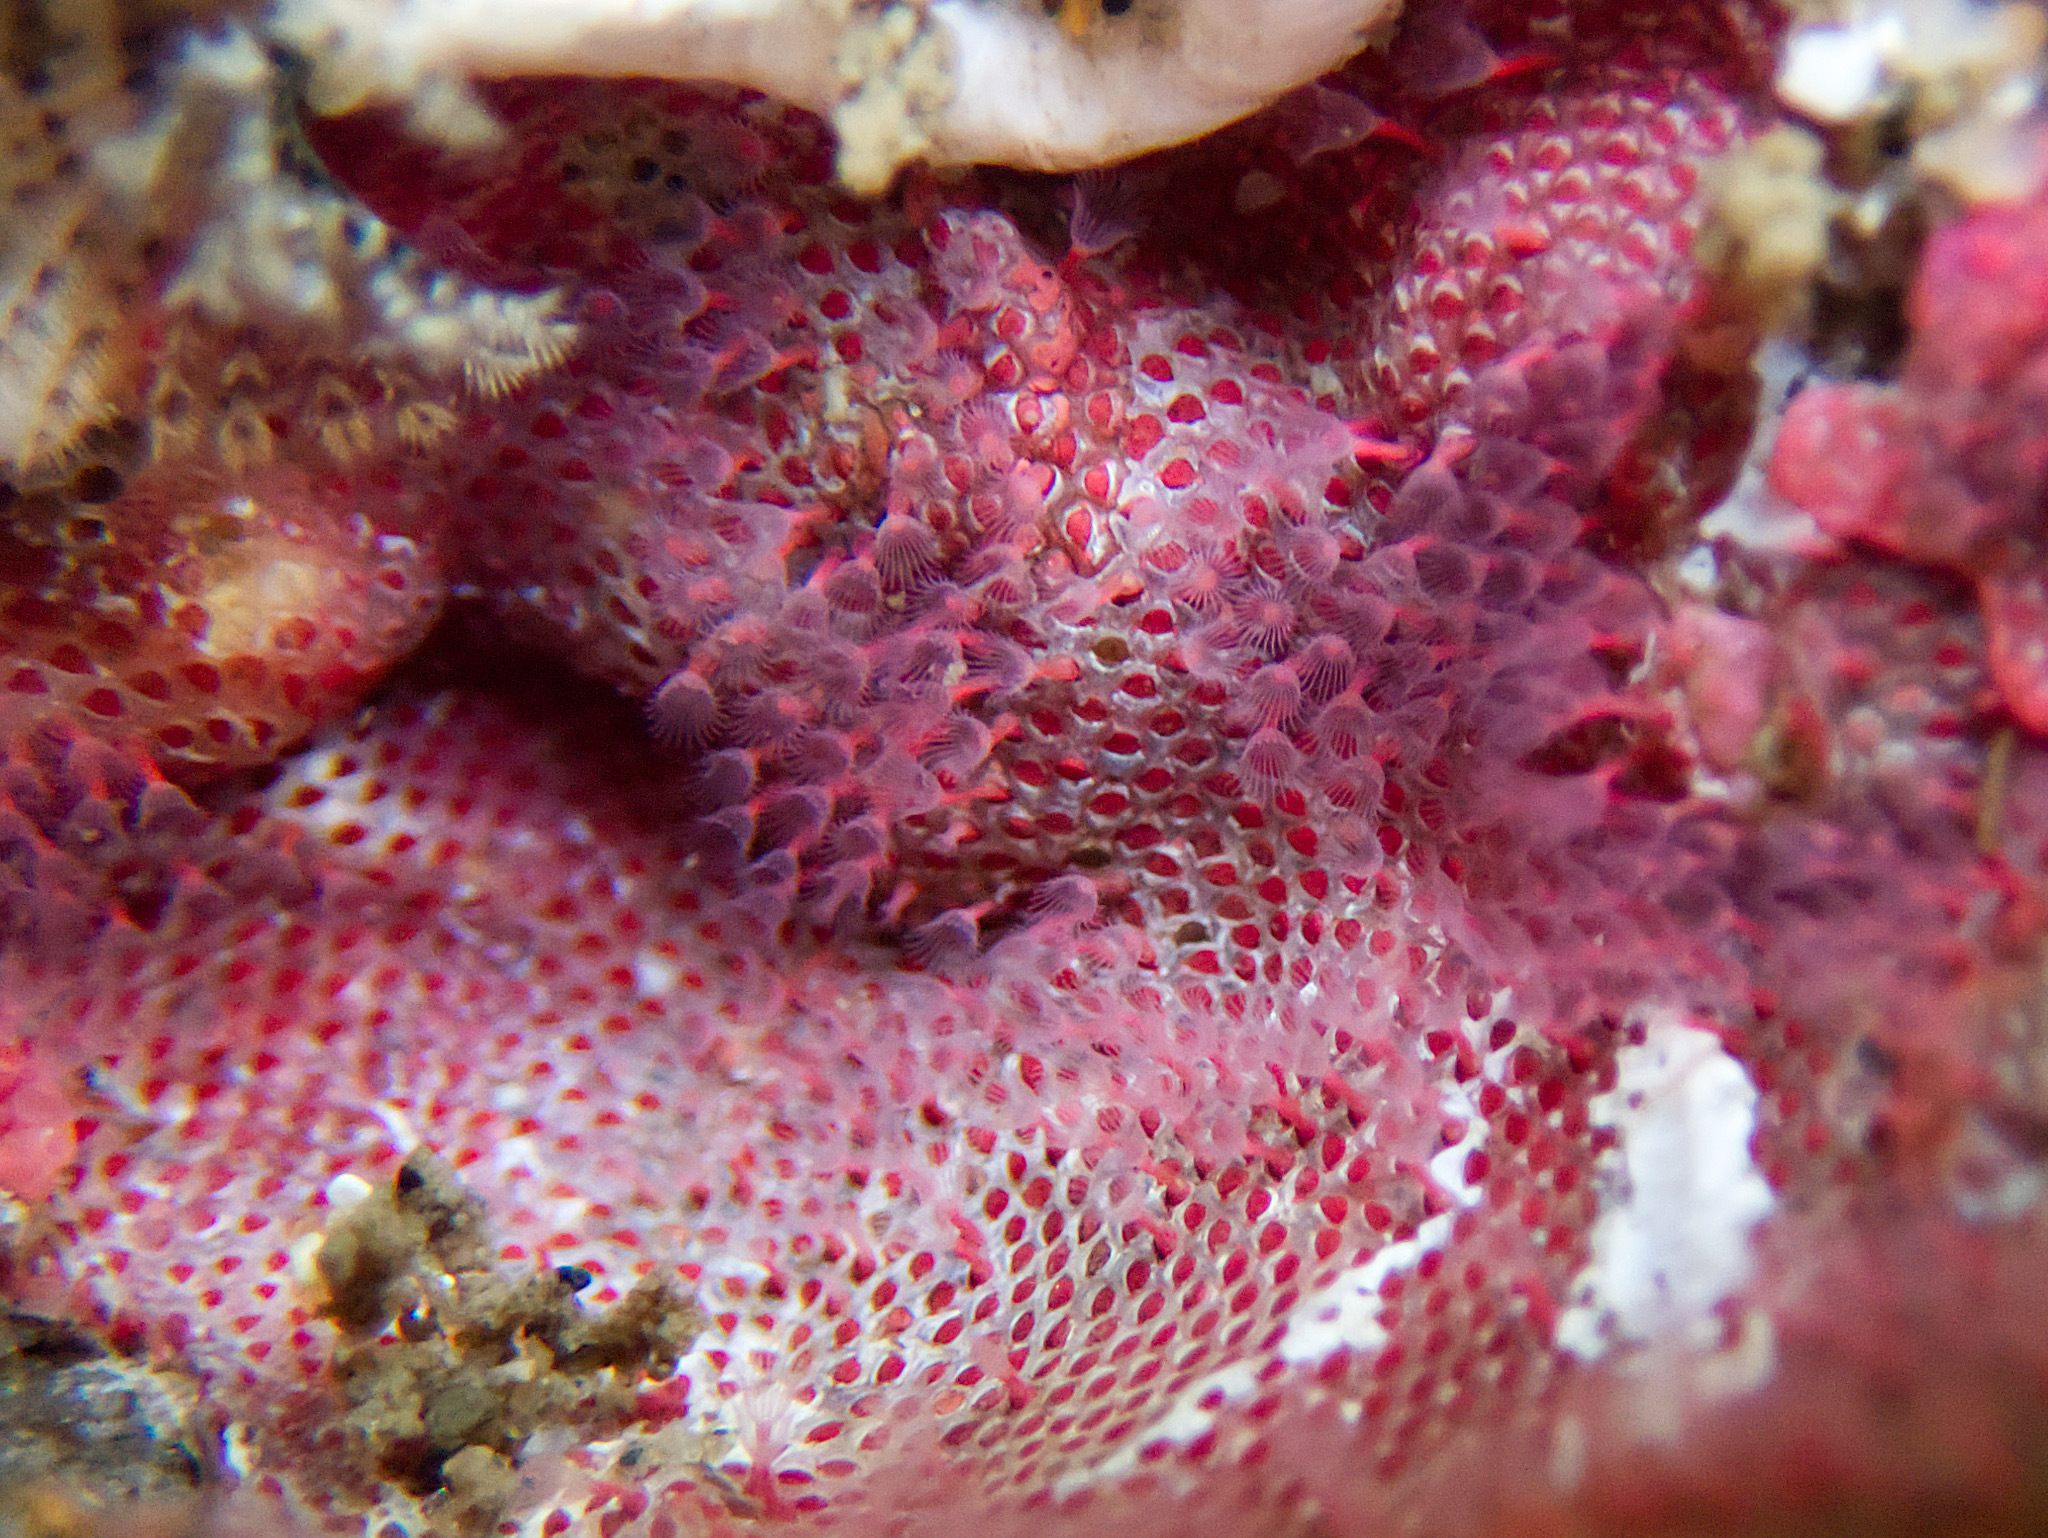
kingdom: Animalia
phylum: Bryozoa
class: Gymnolaemata
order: Cheilostomatida
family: Eurystomellidae
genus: Integripelta
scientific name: Integripelta bilabiata
